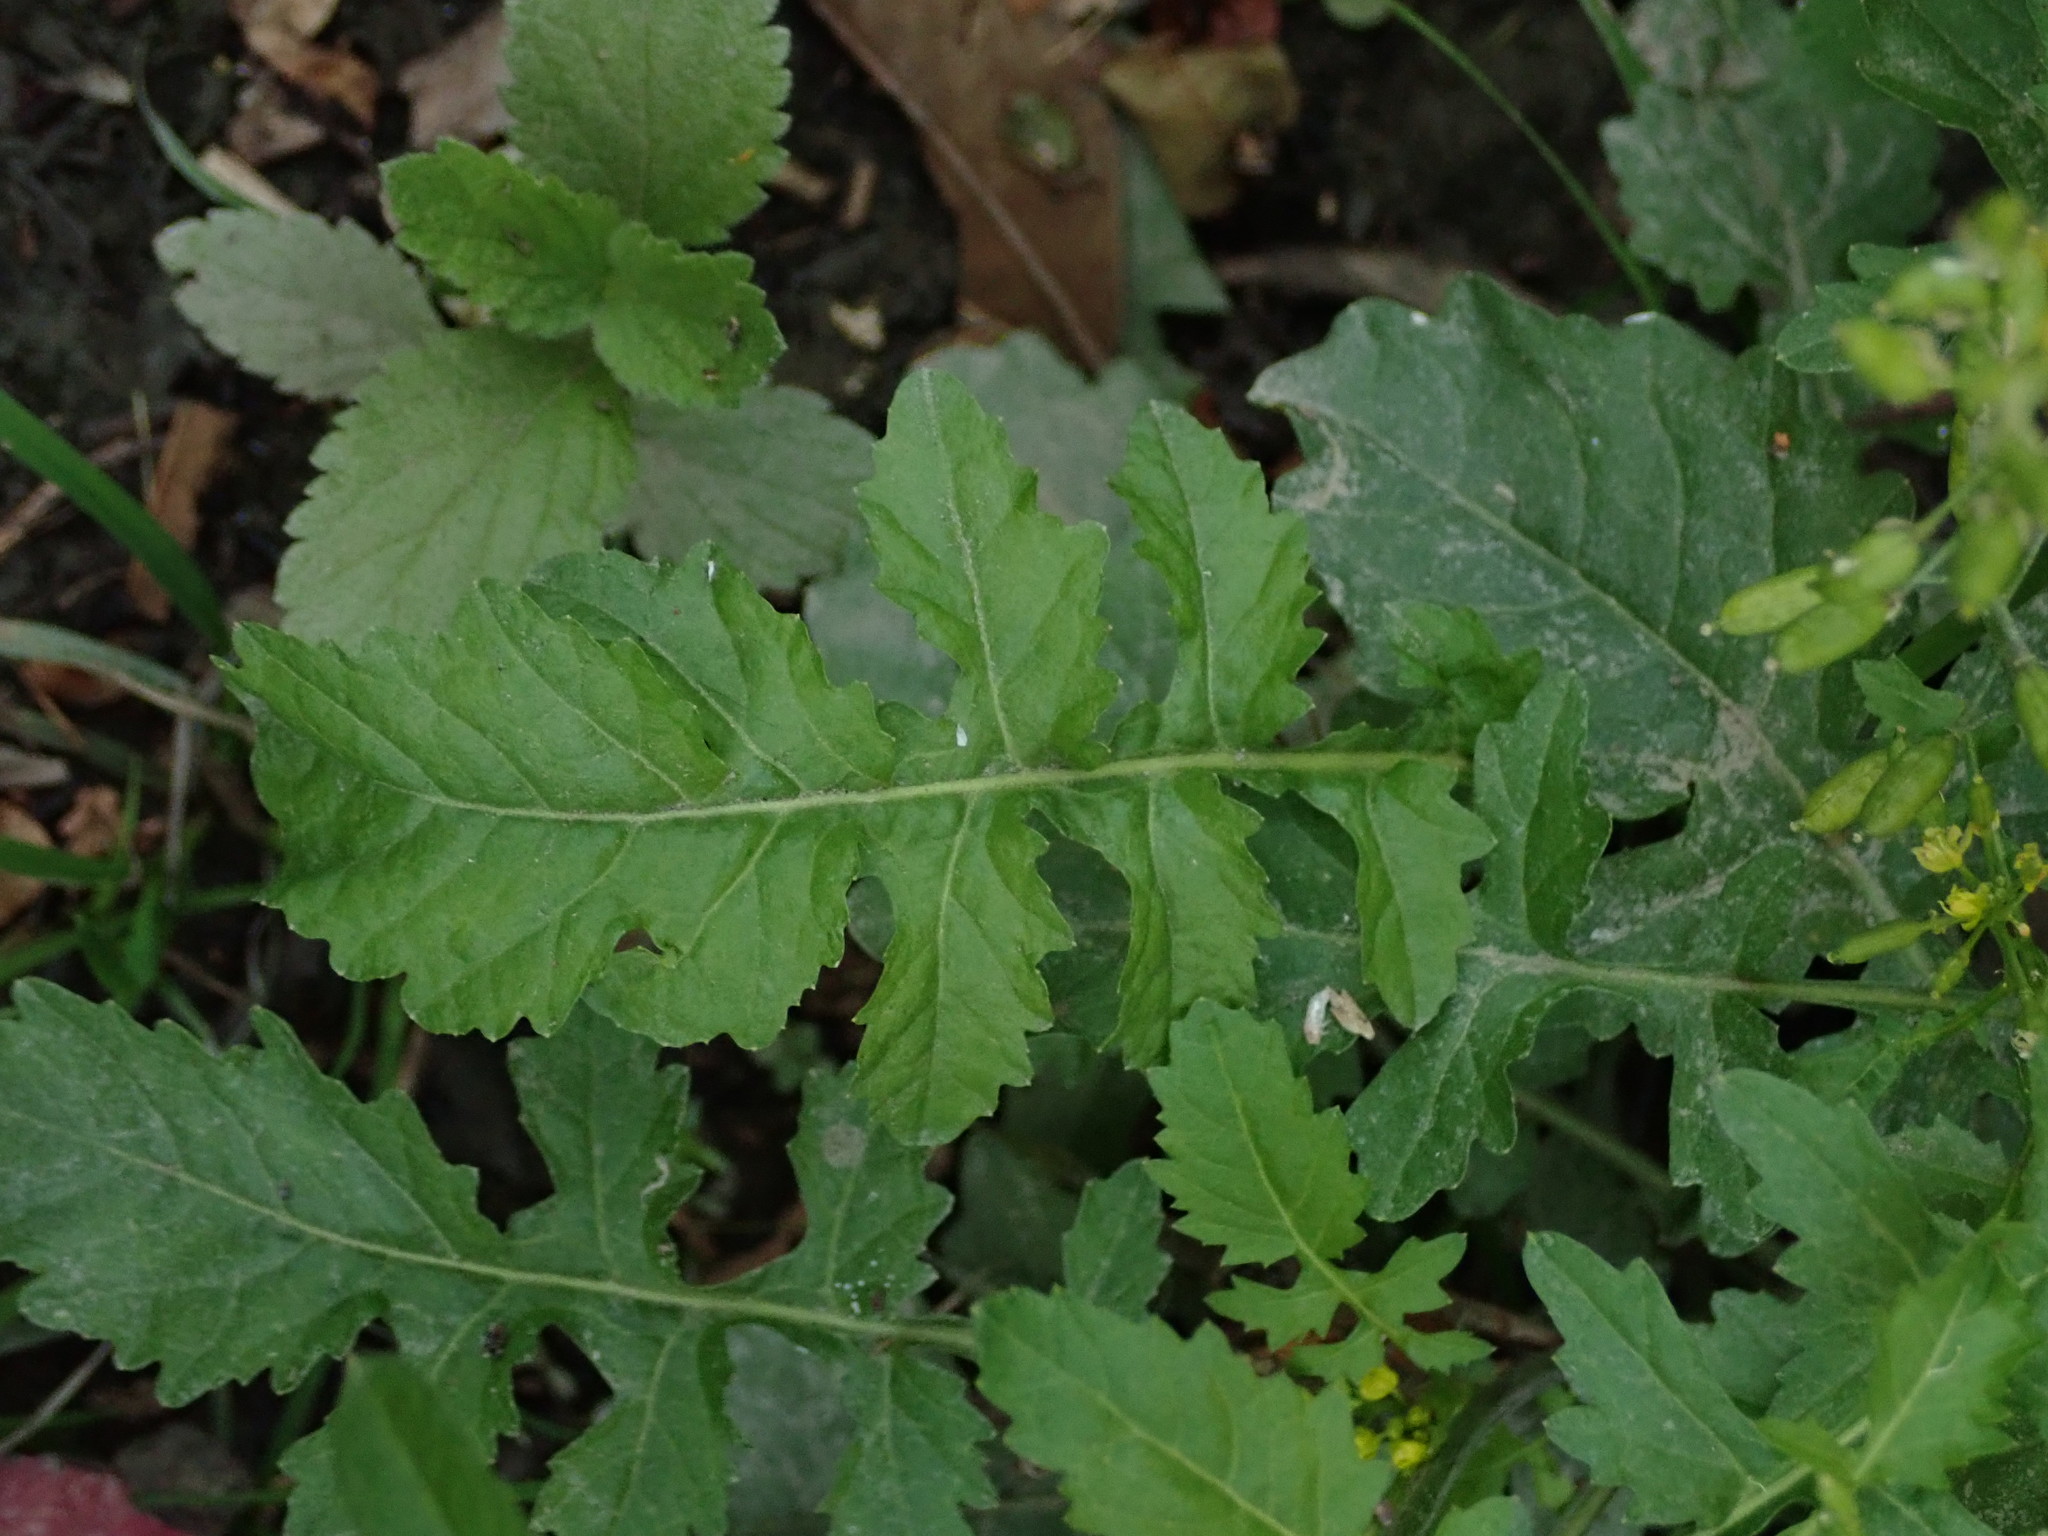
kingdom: Plantae
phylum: Tracheophyta
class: Magnoliopsida
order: Brassicales
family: Brassicaceae
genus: Rorippa
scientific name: Rorippa palustris
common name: Marsh yellow-cress
